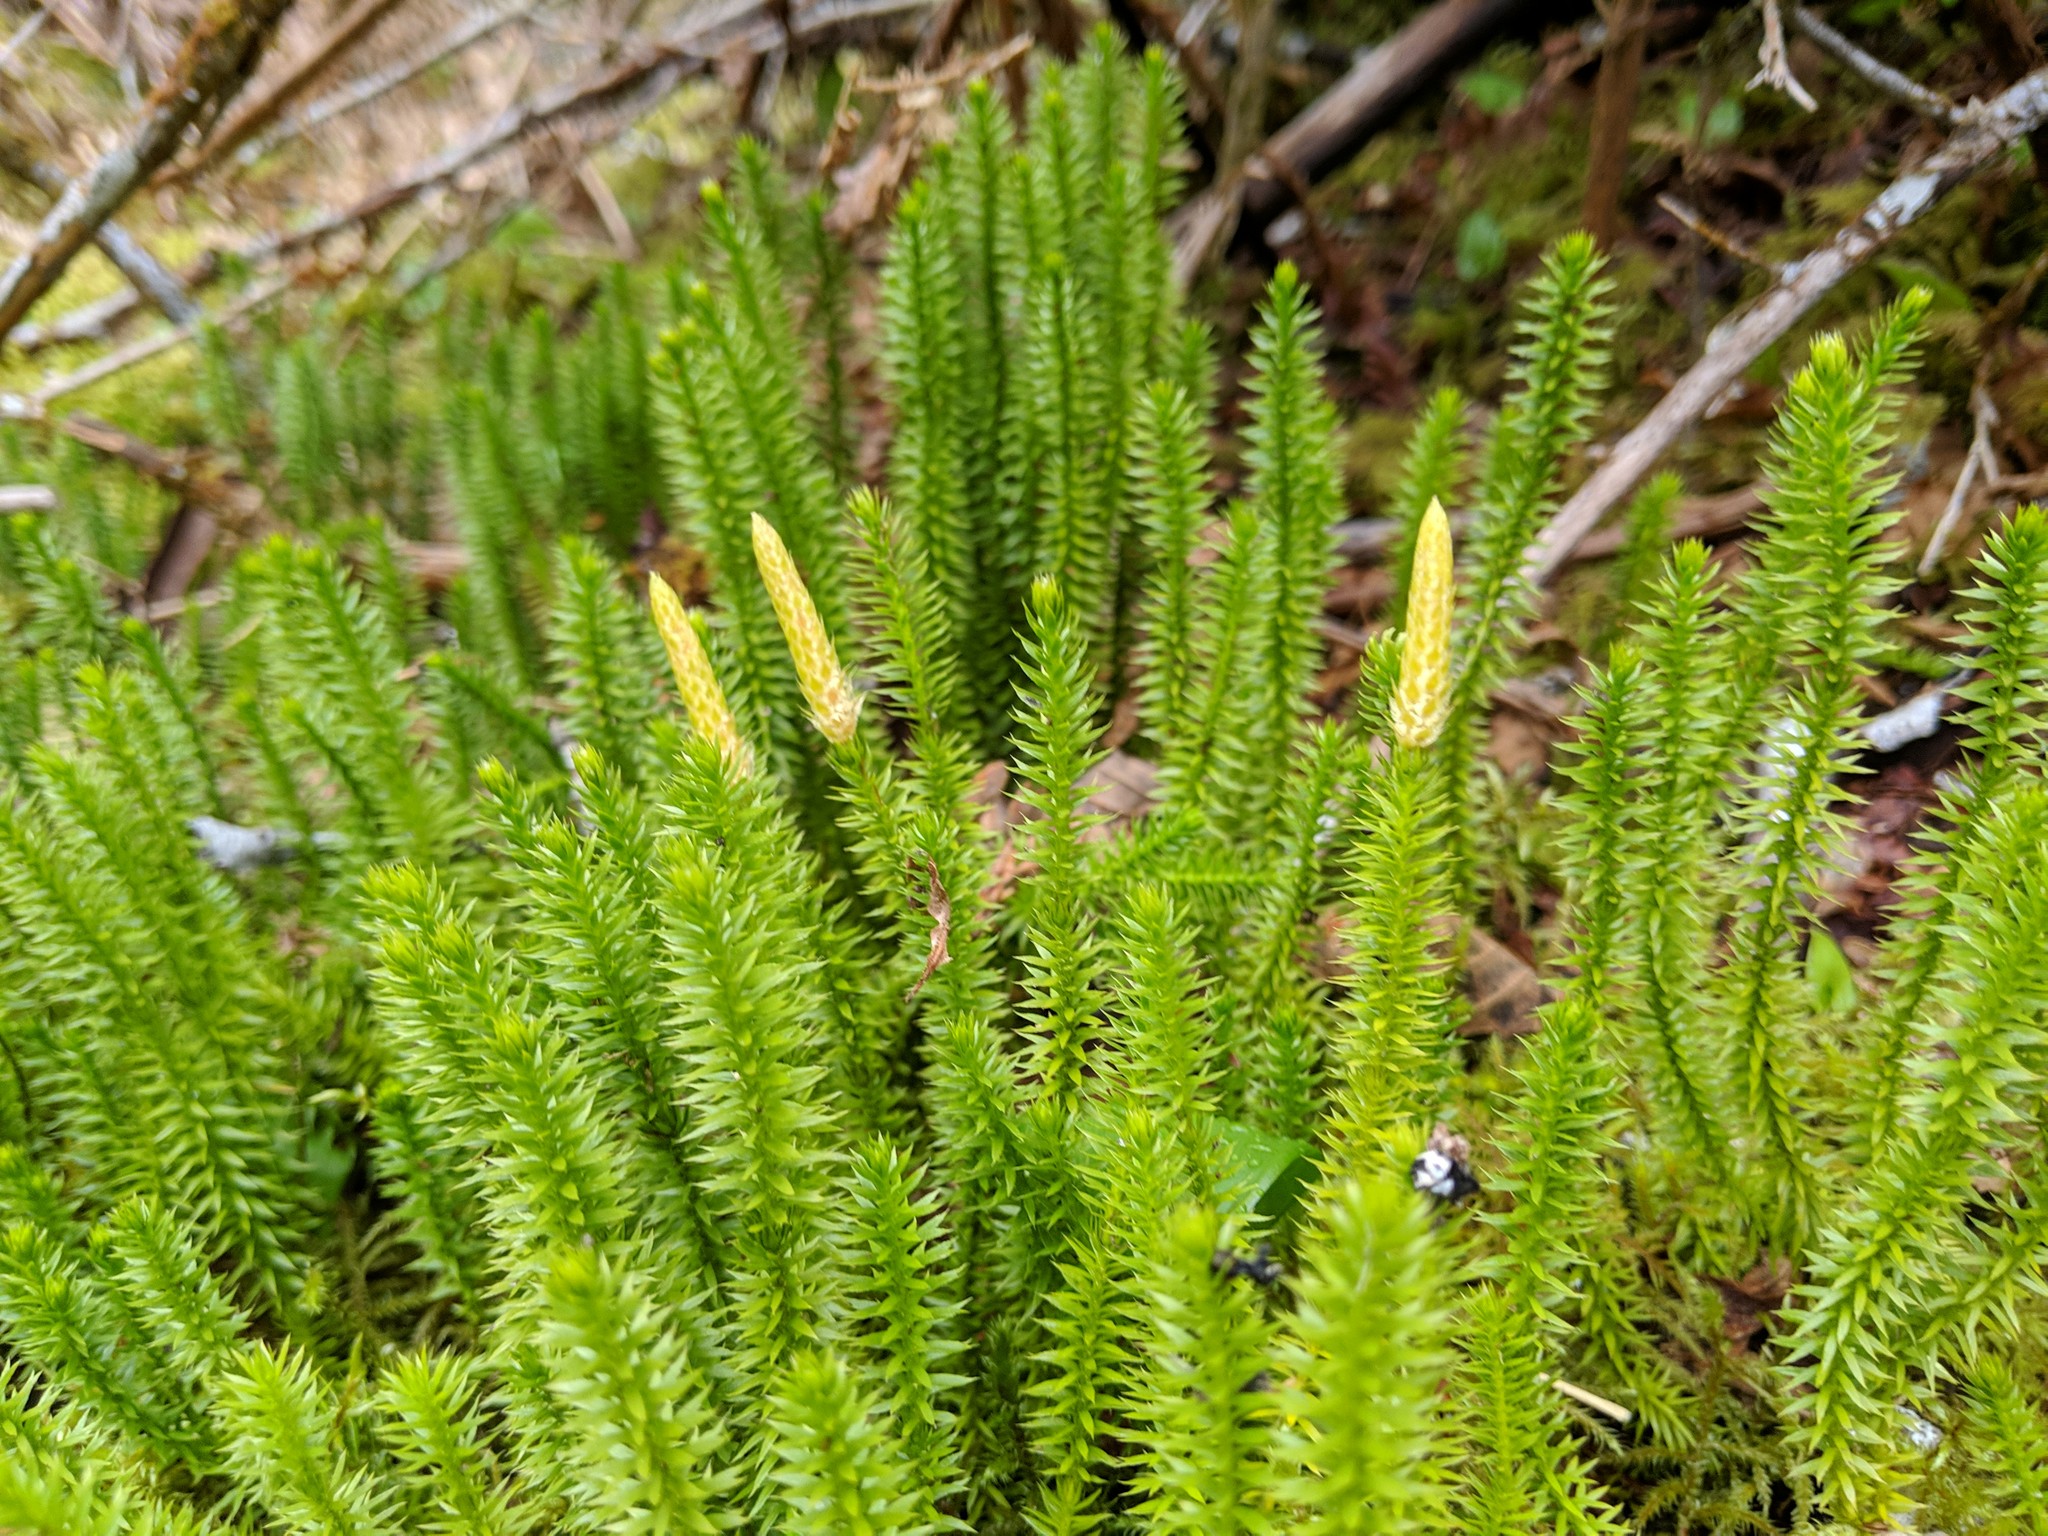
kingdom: Plantae
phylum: Tracheophyta
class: Lycopodiopsida
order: Lycopodiales
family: Lycopodiaceae
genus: Spinulum
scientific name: Spinulum annotinum
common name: Interrupted club-moss
